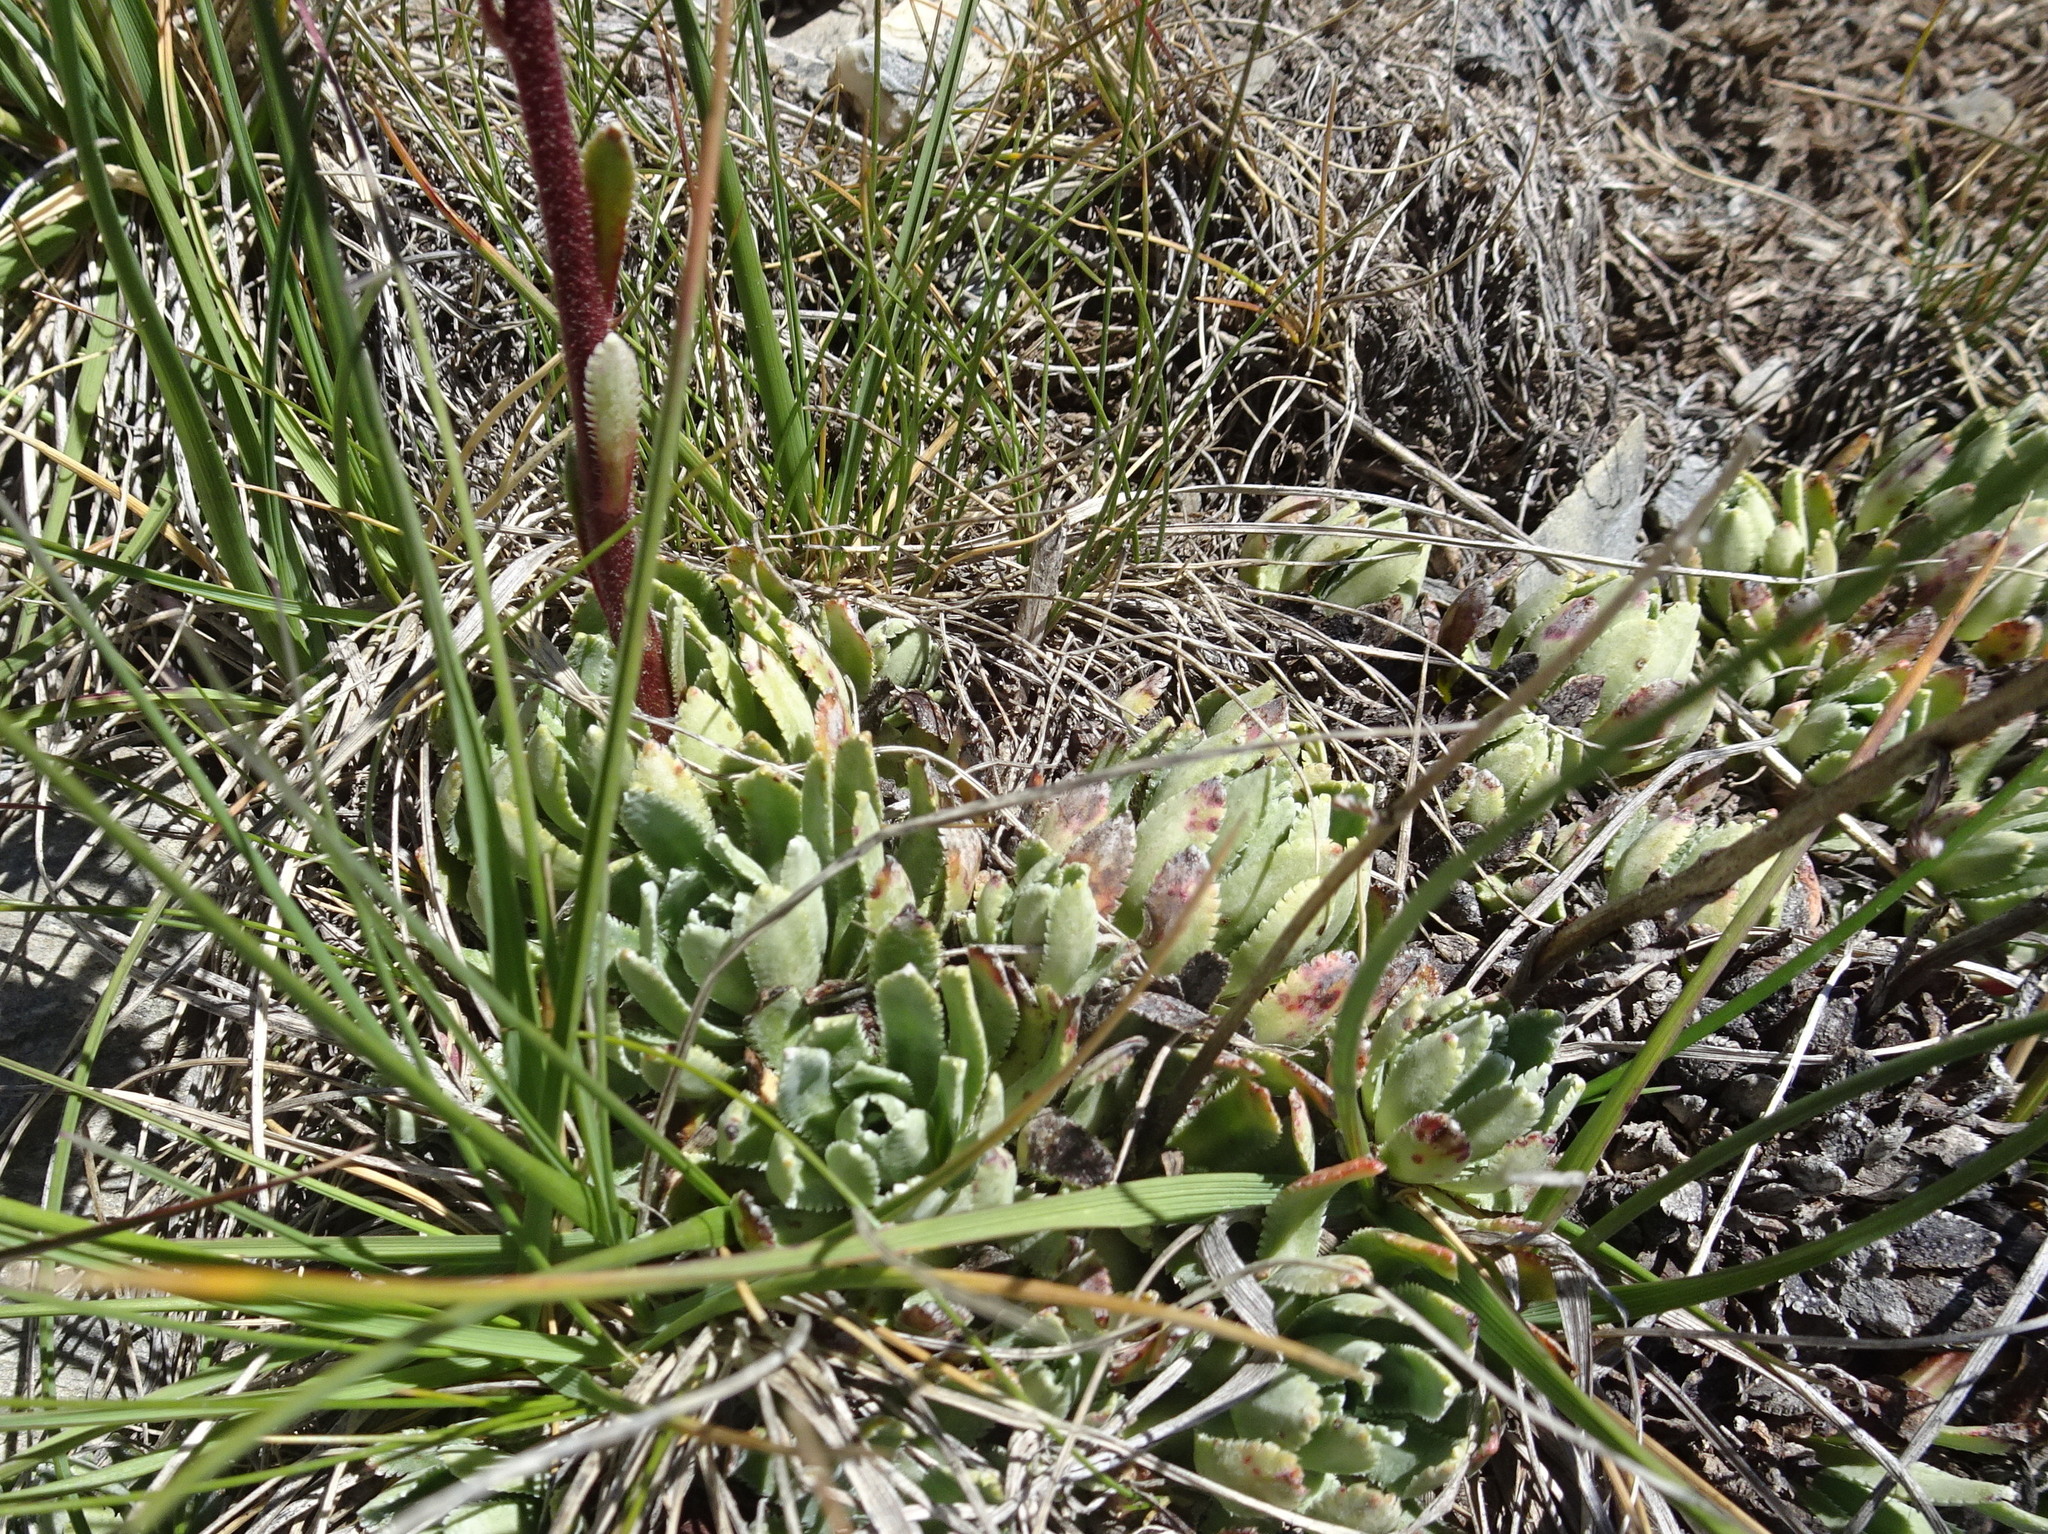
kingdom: Plantae
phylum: Tracheophyta
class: Magnoliopsida
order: Saxifragales
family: Saxifragaceae
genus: Saxifraga
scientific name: Saxifraga paniculata
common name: Livelong saxifrage
